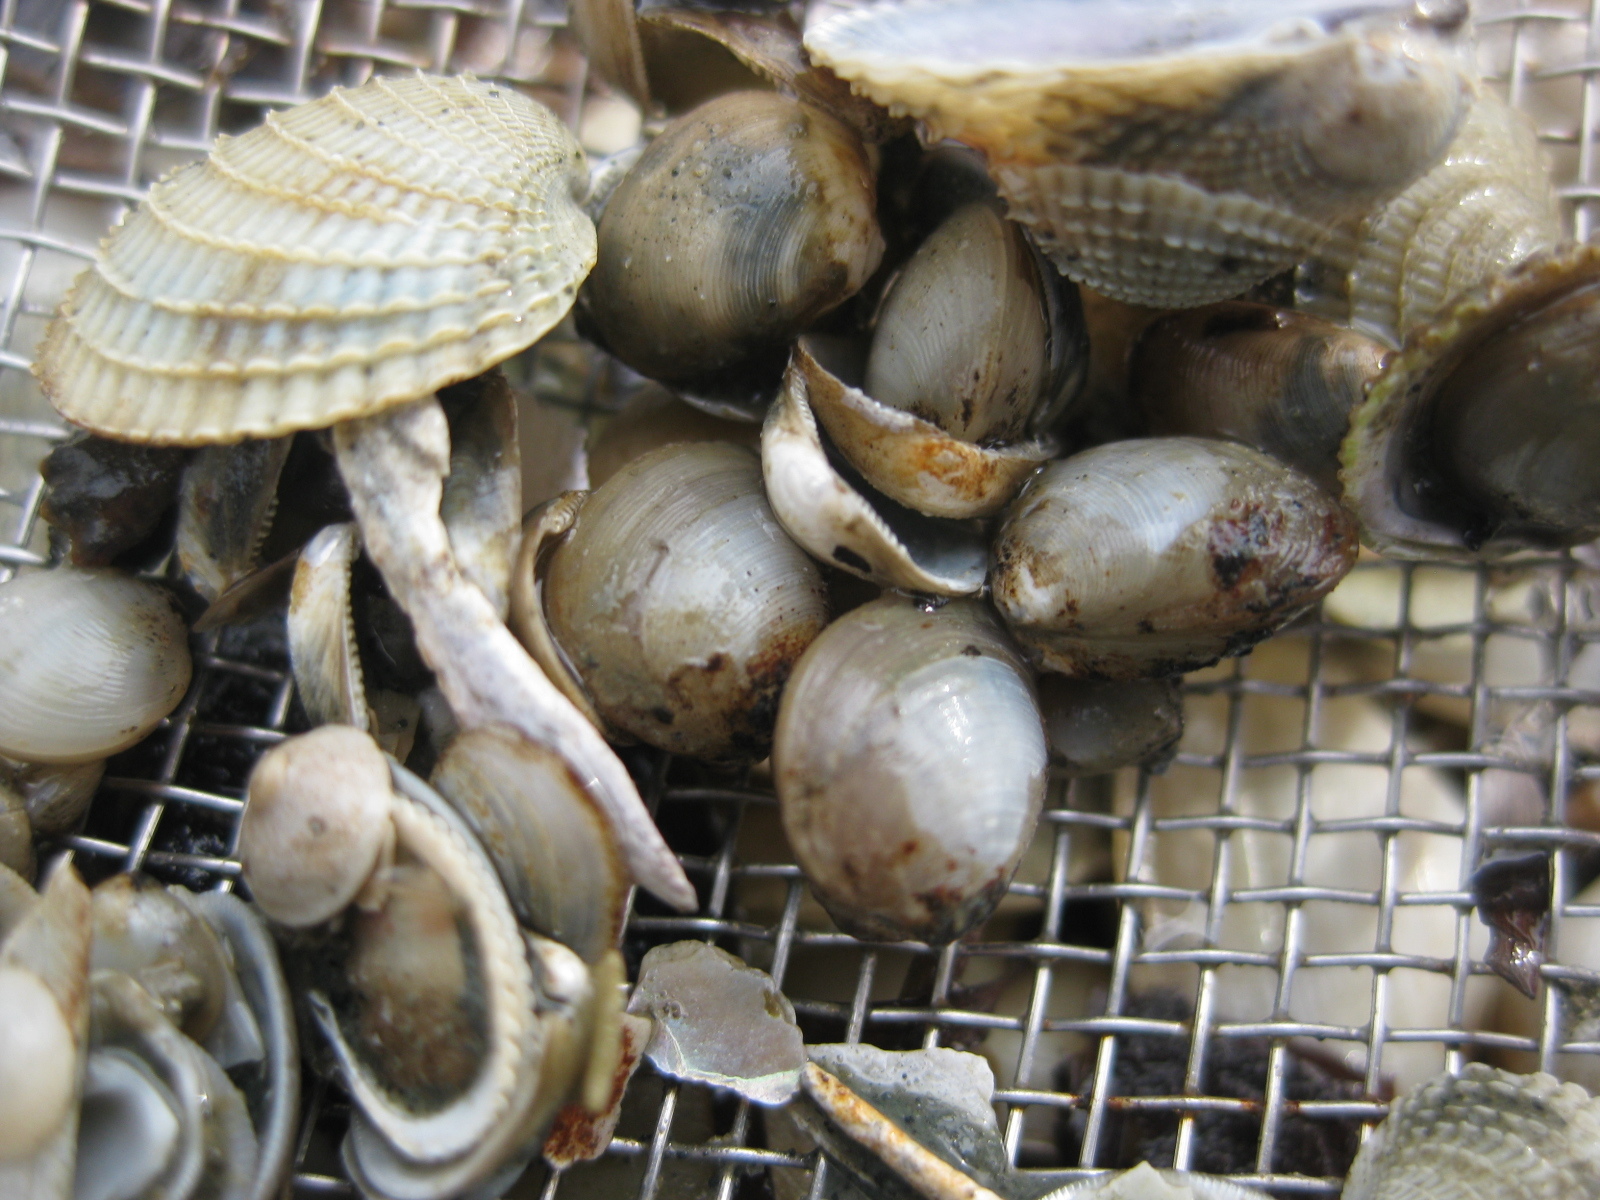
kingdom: Animalia
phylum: Mollusca
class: Bivalvia
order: Nuculida
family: Nuculidae
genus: Linucula
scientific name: Linucula hartvigiana
